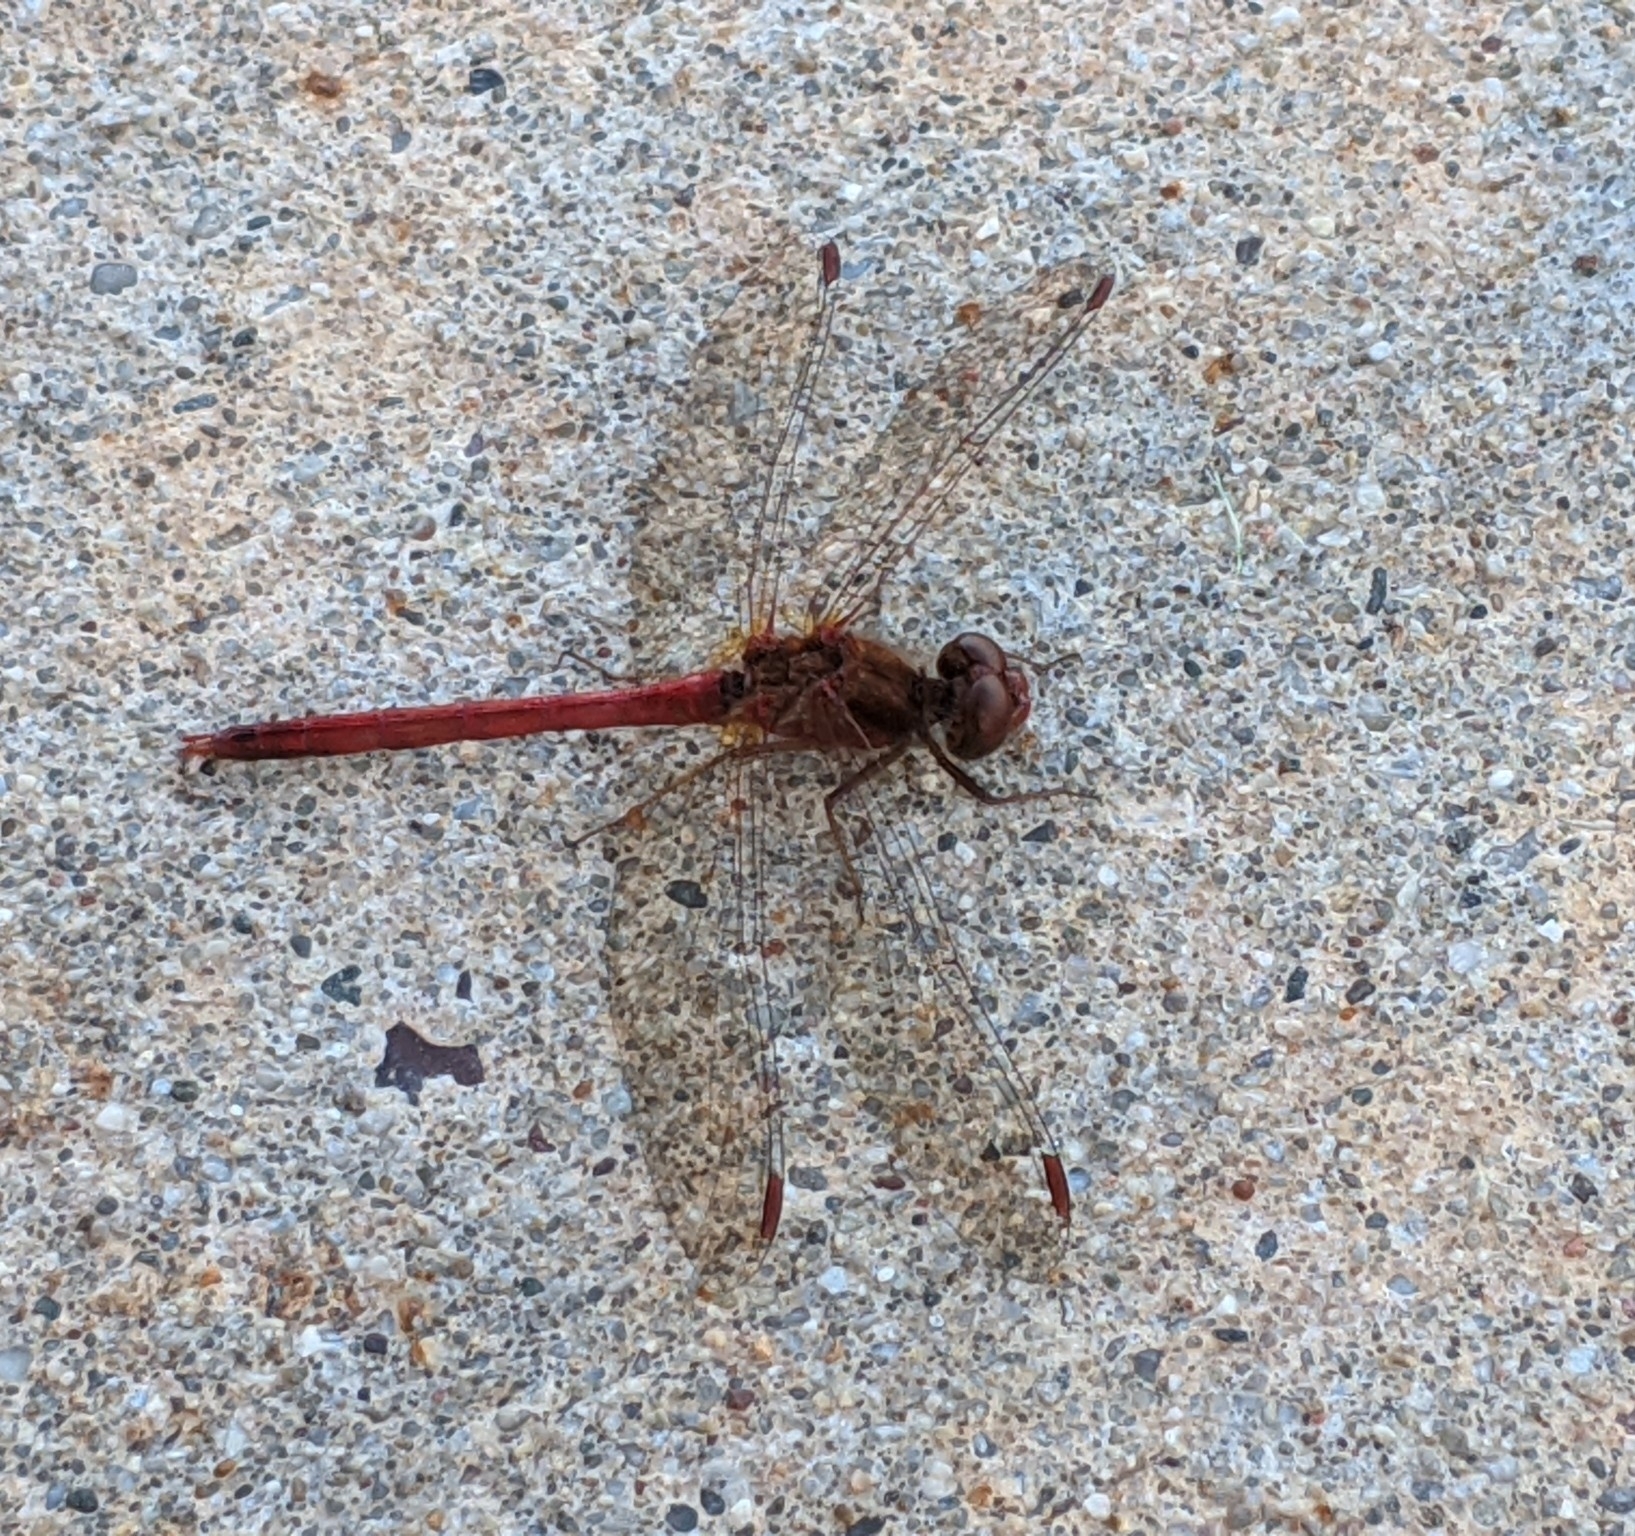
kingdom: Animalia
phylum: Arthropoda
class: Insecta
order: Odonata
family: Libellulidae
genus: Sympetrum
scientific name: Sympetrum vicinum
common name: Autumn meadowhawk
